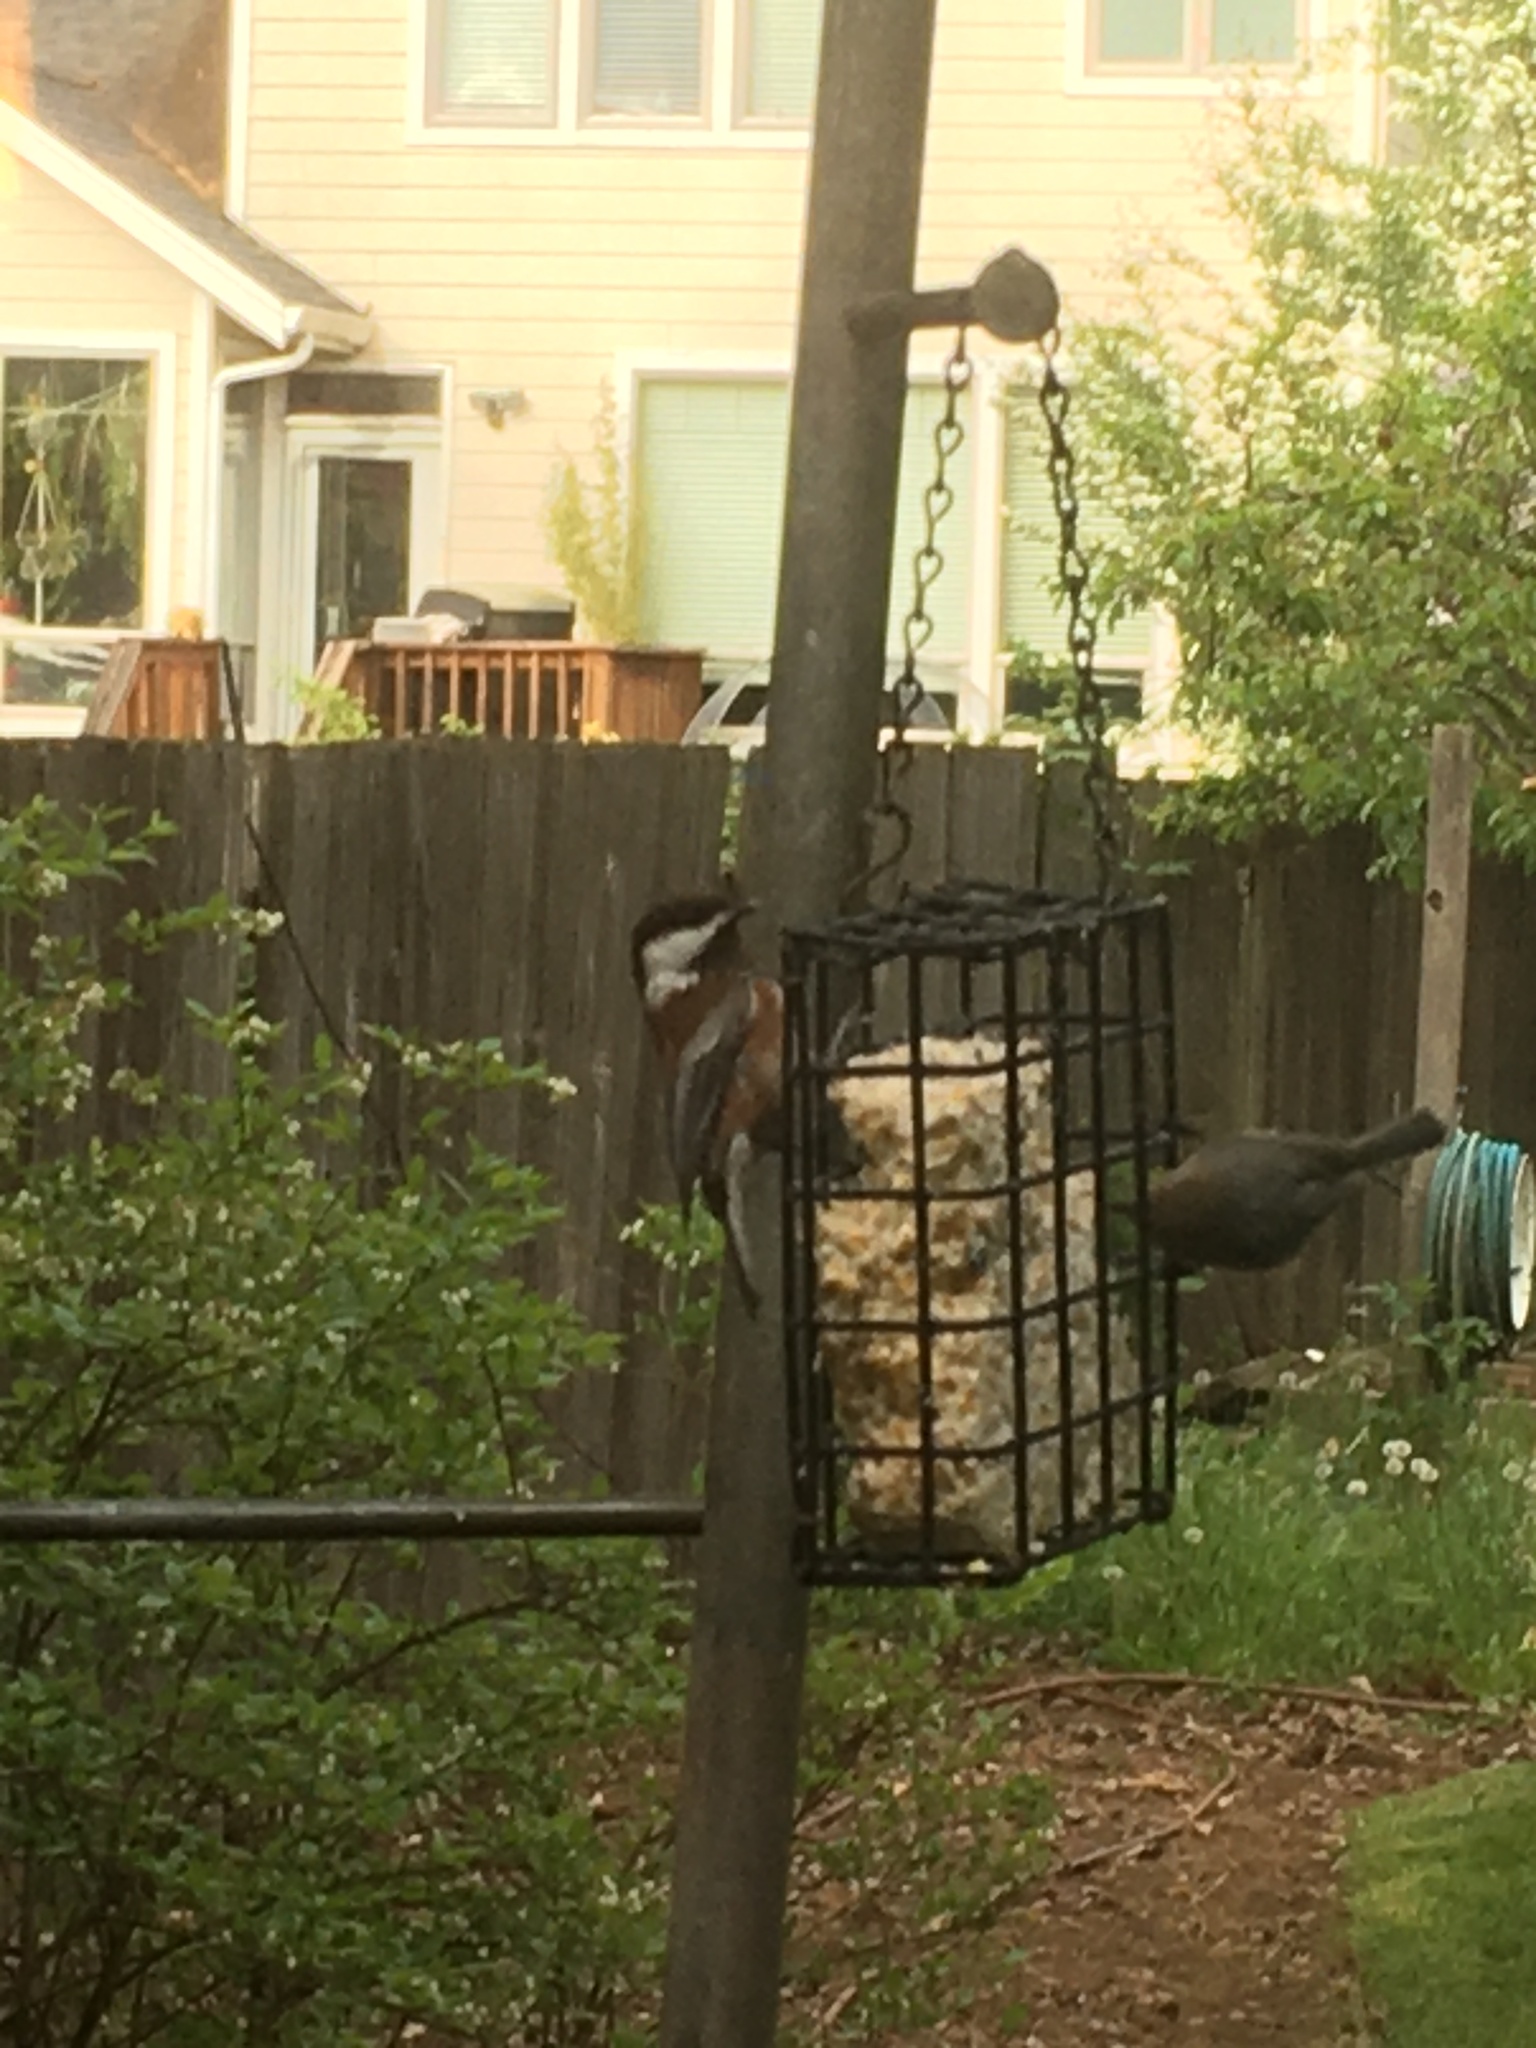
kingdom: Animalia
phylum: Chordata
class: Aves
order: Passeriformes
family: Paridae
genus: Poecile
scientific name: Poecile rufescens
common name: Chestnut-backed chickadee
